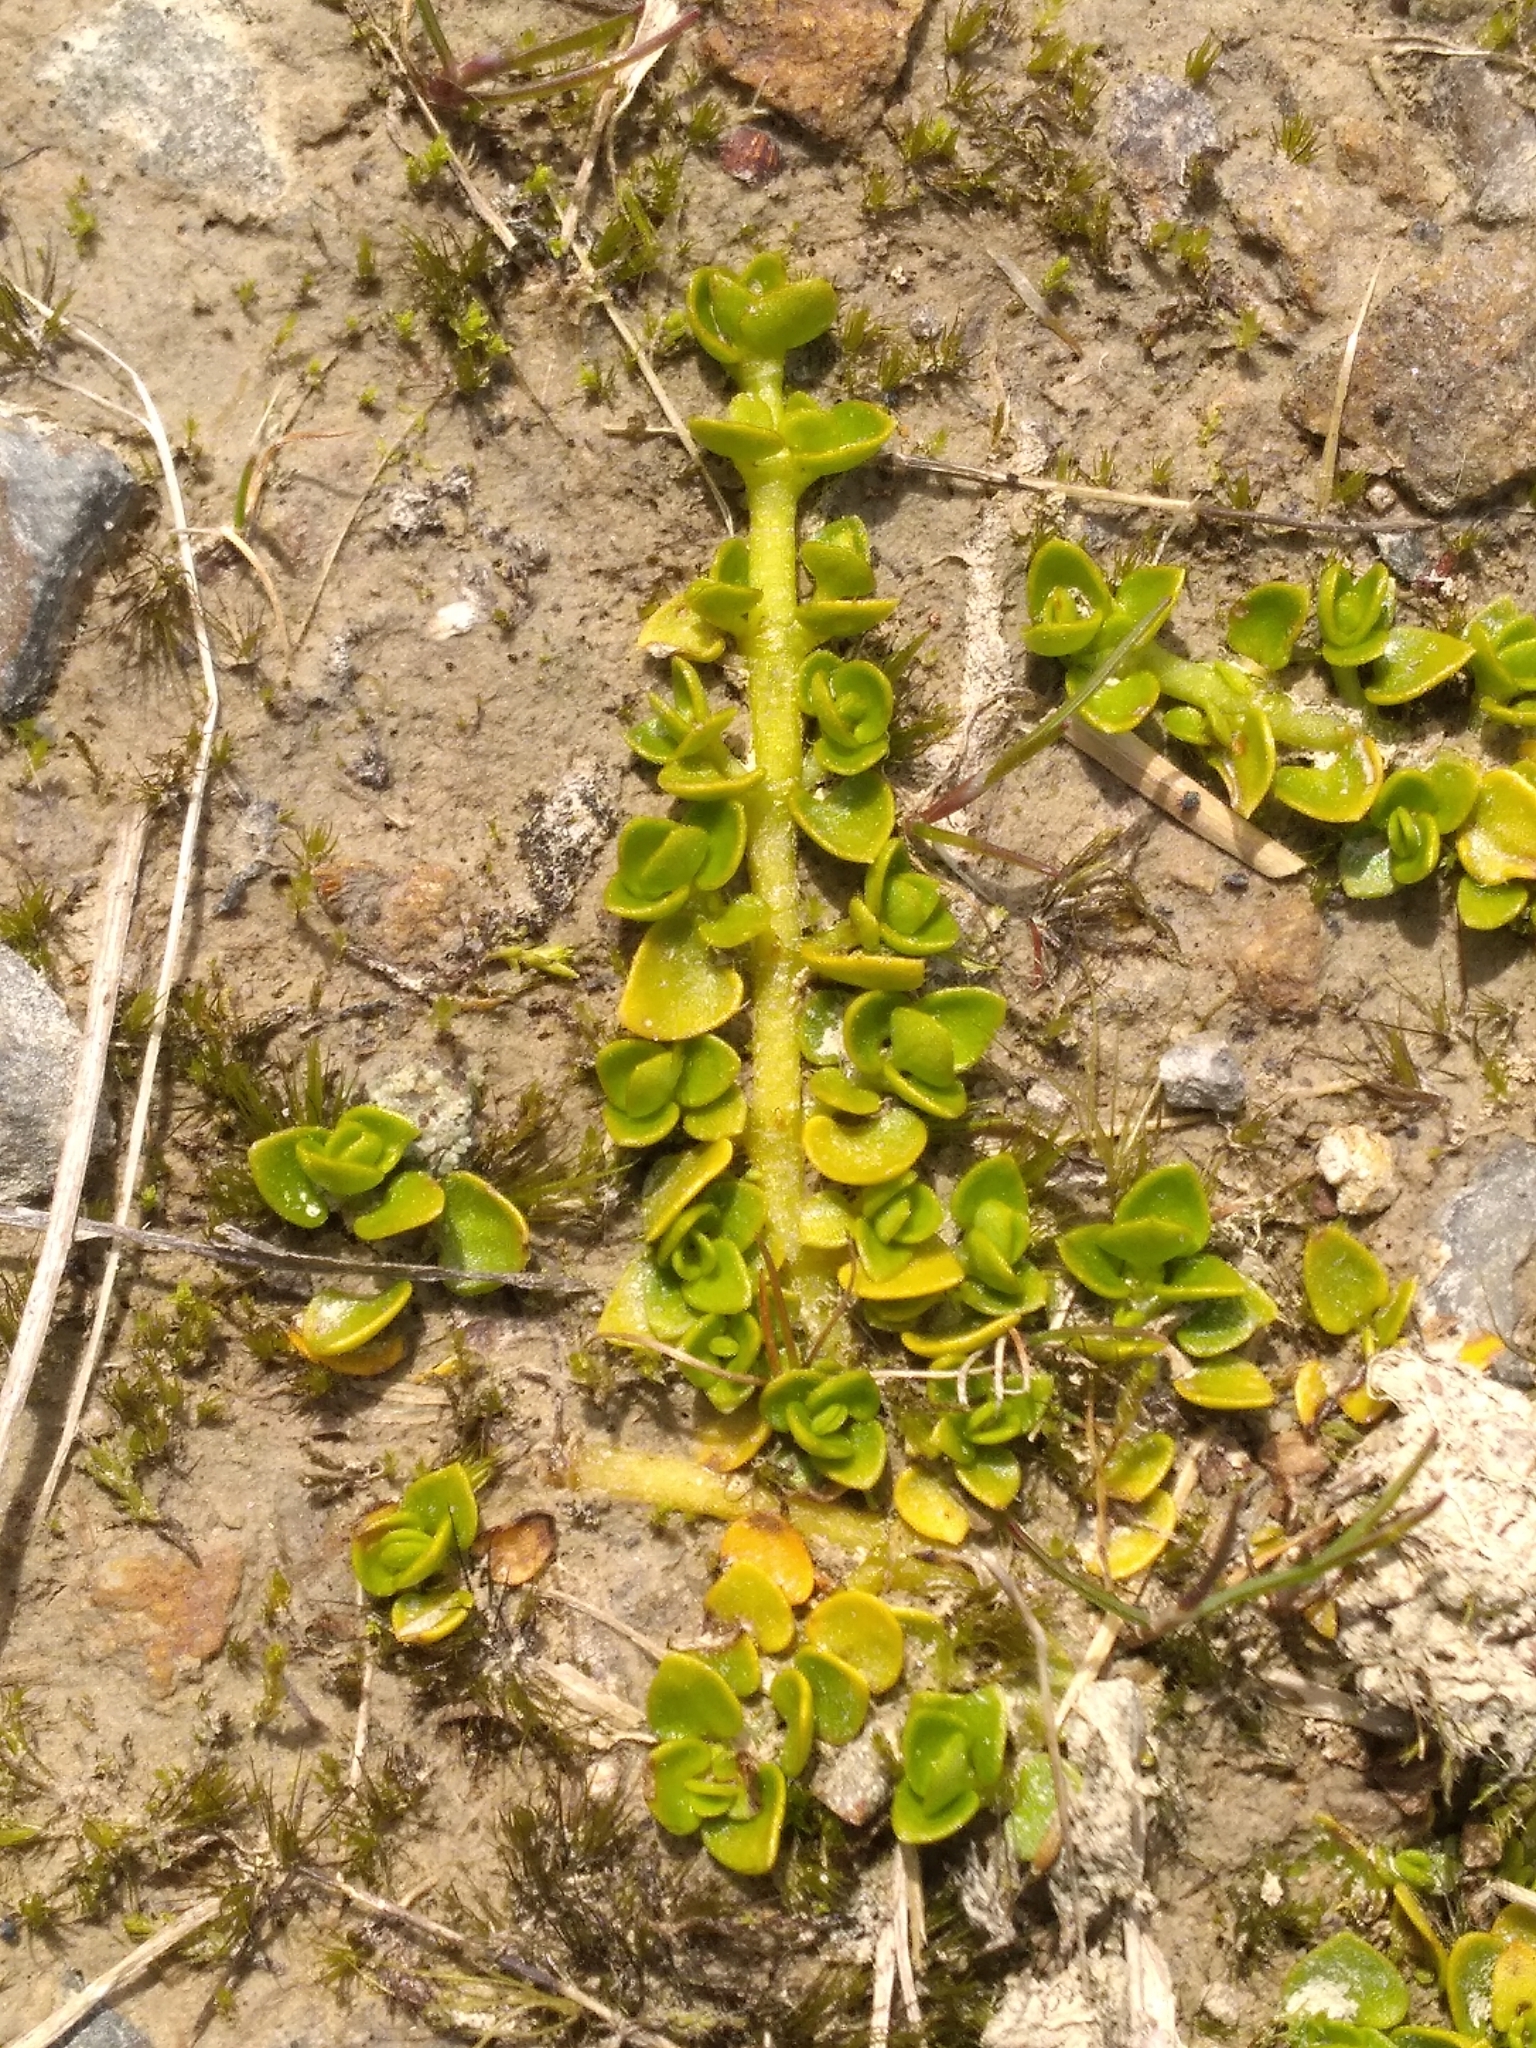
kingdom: Plantae
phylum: Tracheophyta
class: Magnoliopsida
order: Gentianales
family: Rubiaceae
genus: Nertera
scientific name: Nertera ciliata
